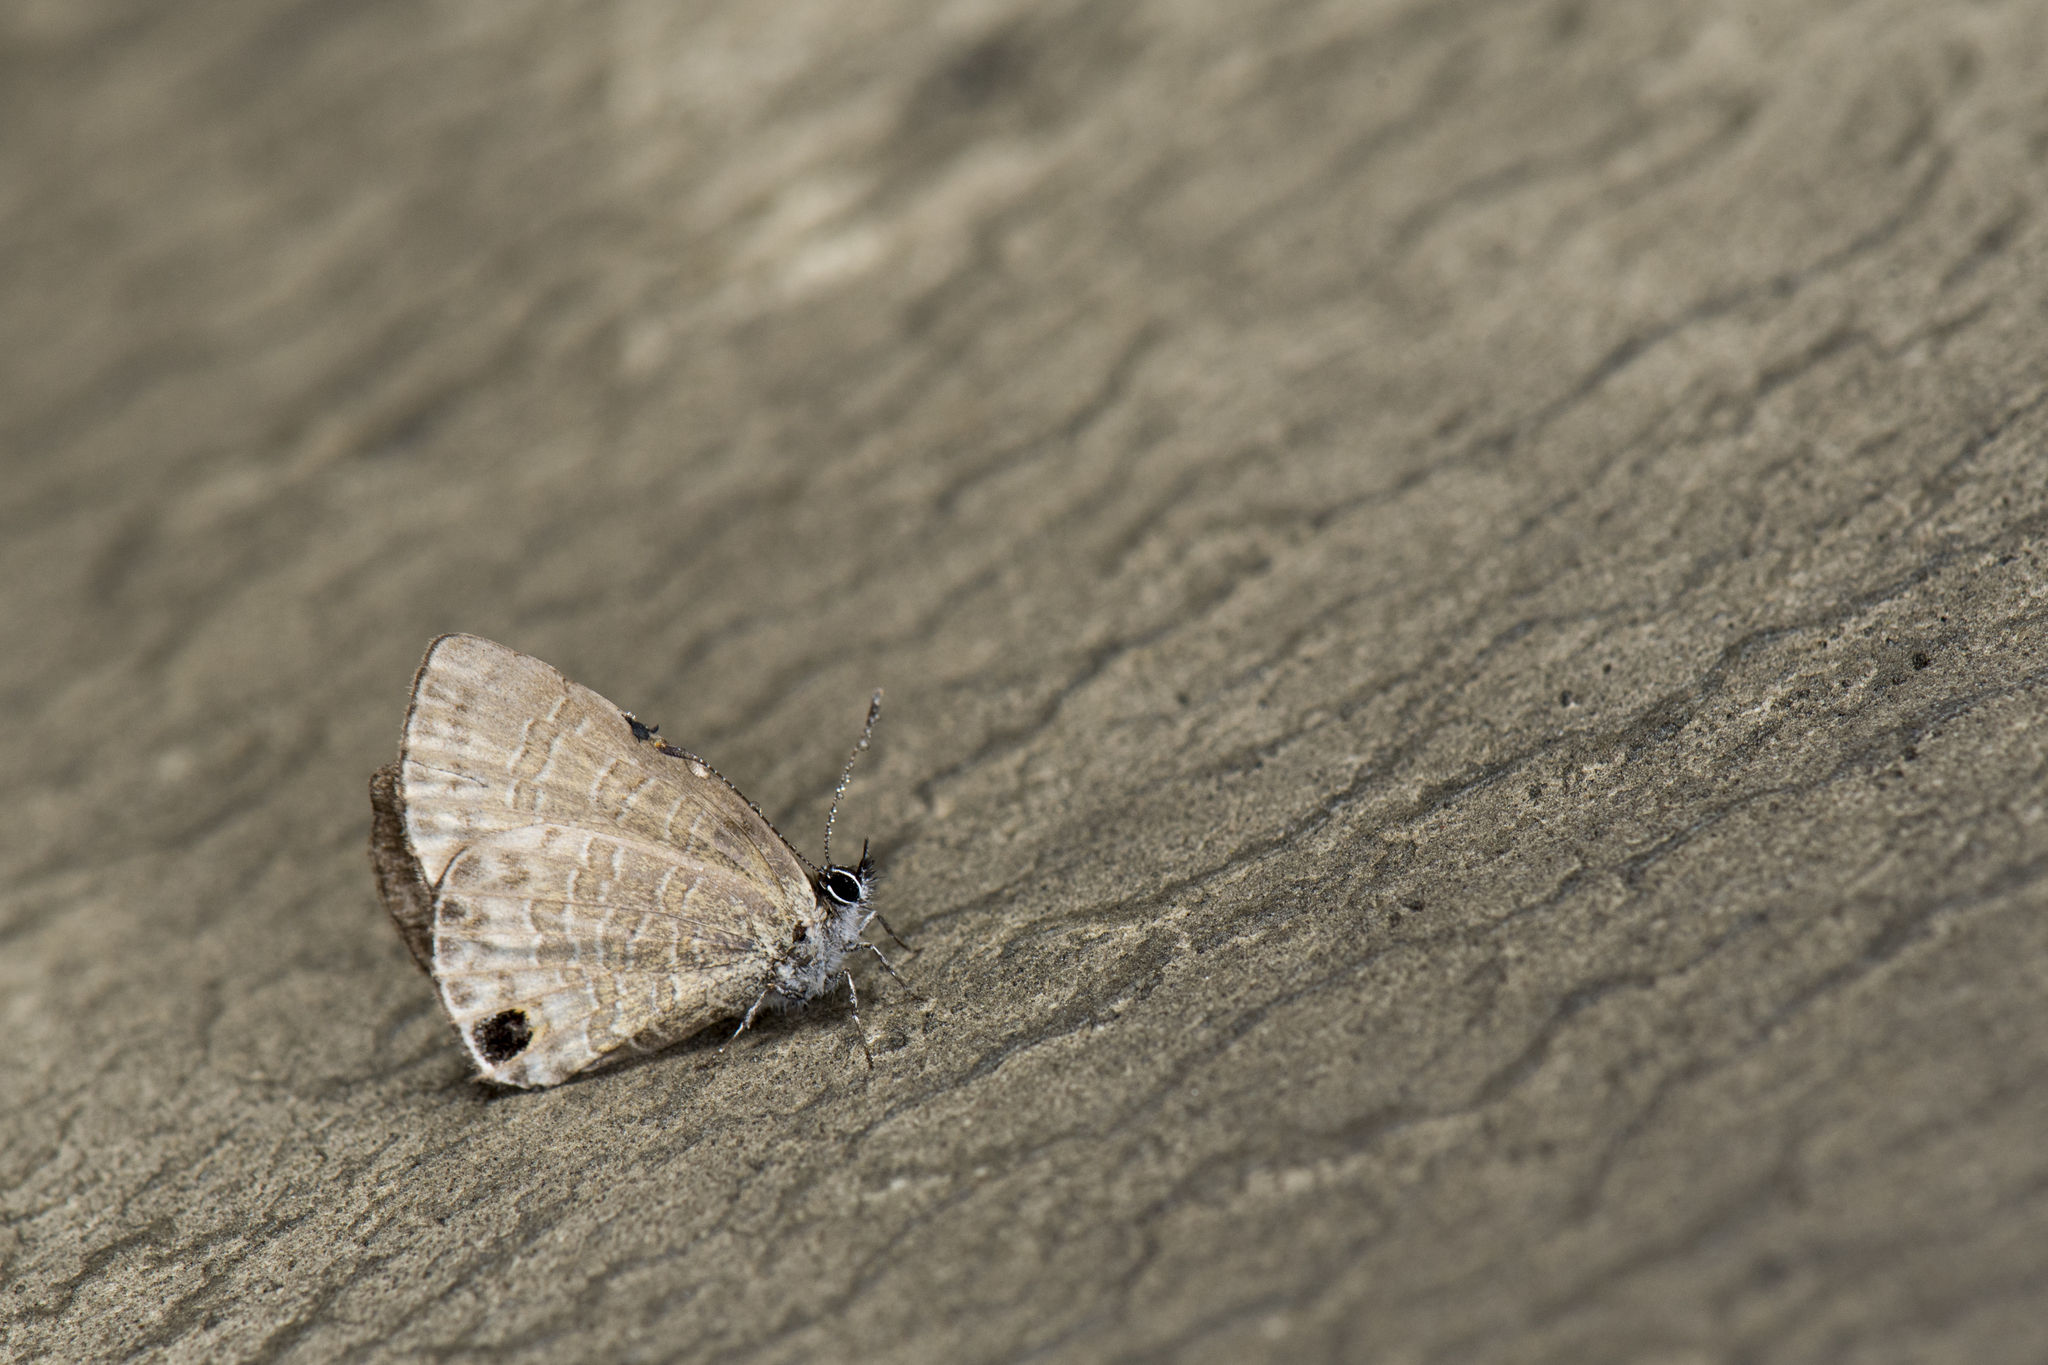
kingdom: Animalia
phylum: Arthropoda
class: Insecta
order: Lepidoptera
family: Lycaenidae
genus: Prosotas
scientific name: Prosotas dubiosa
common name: Tailless lineblue
